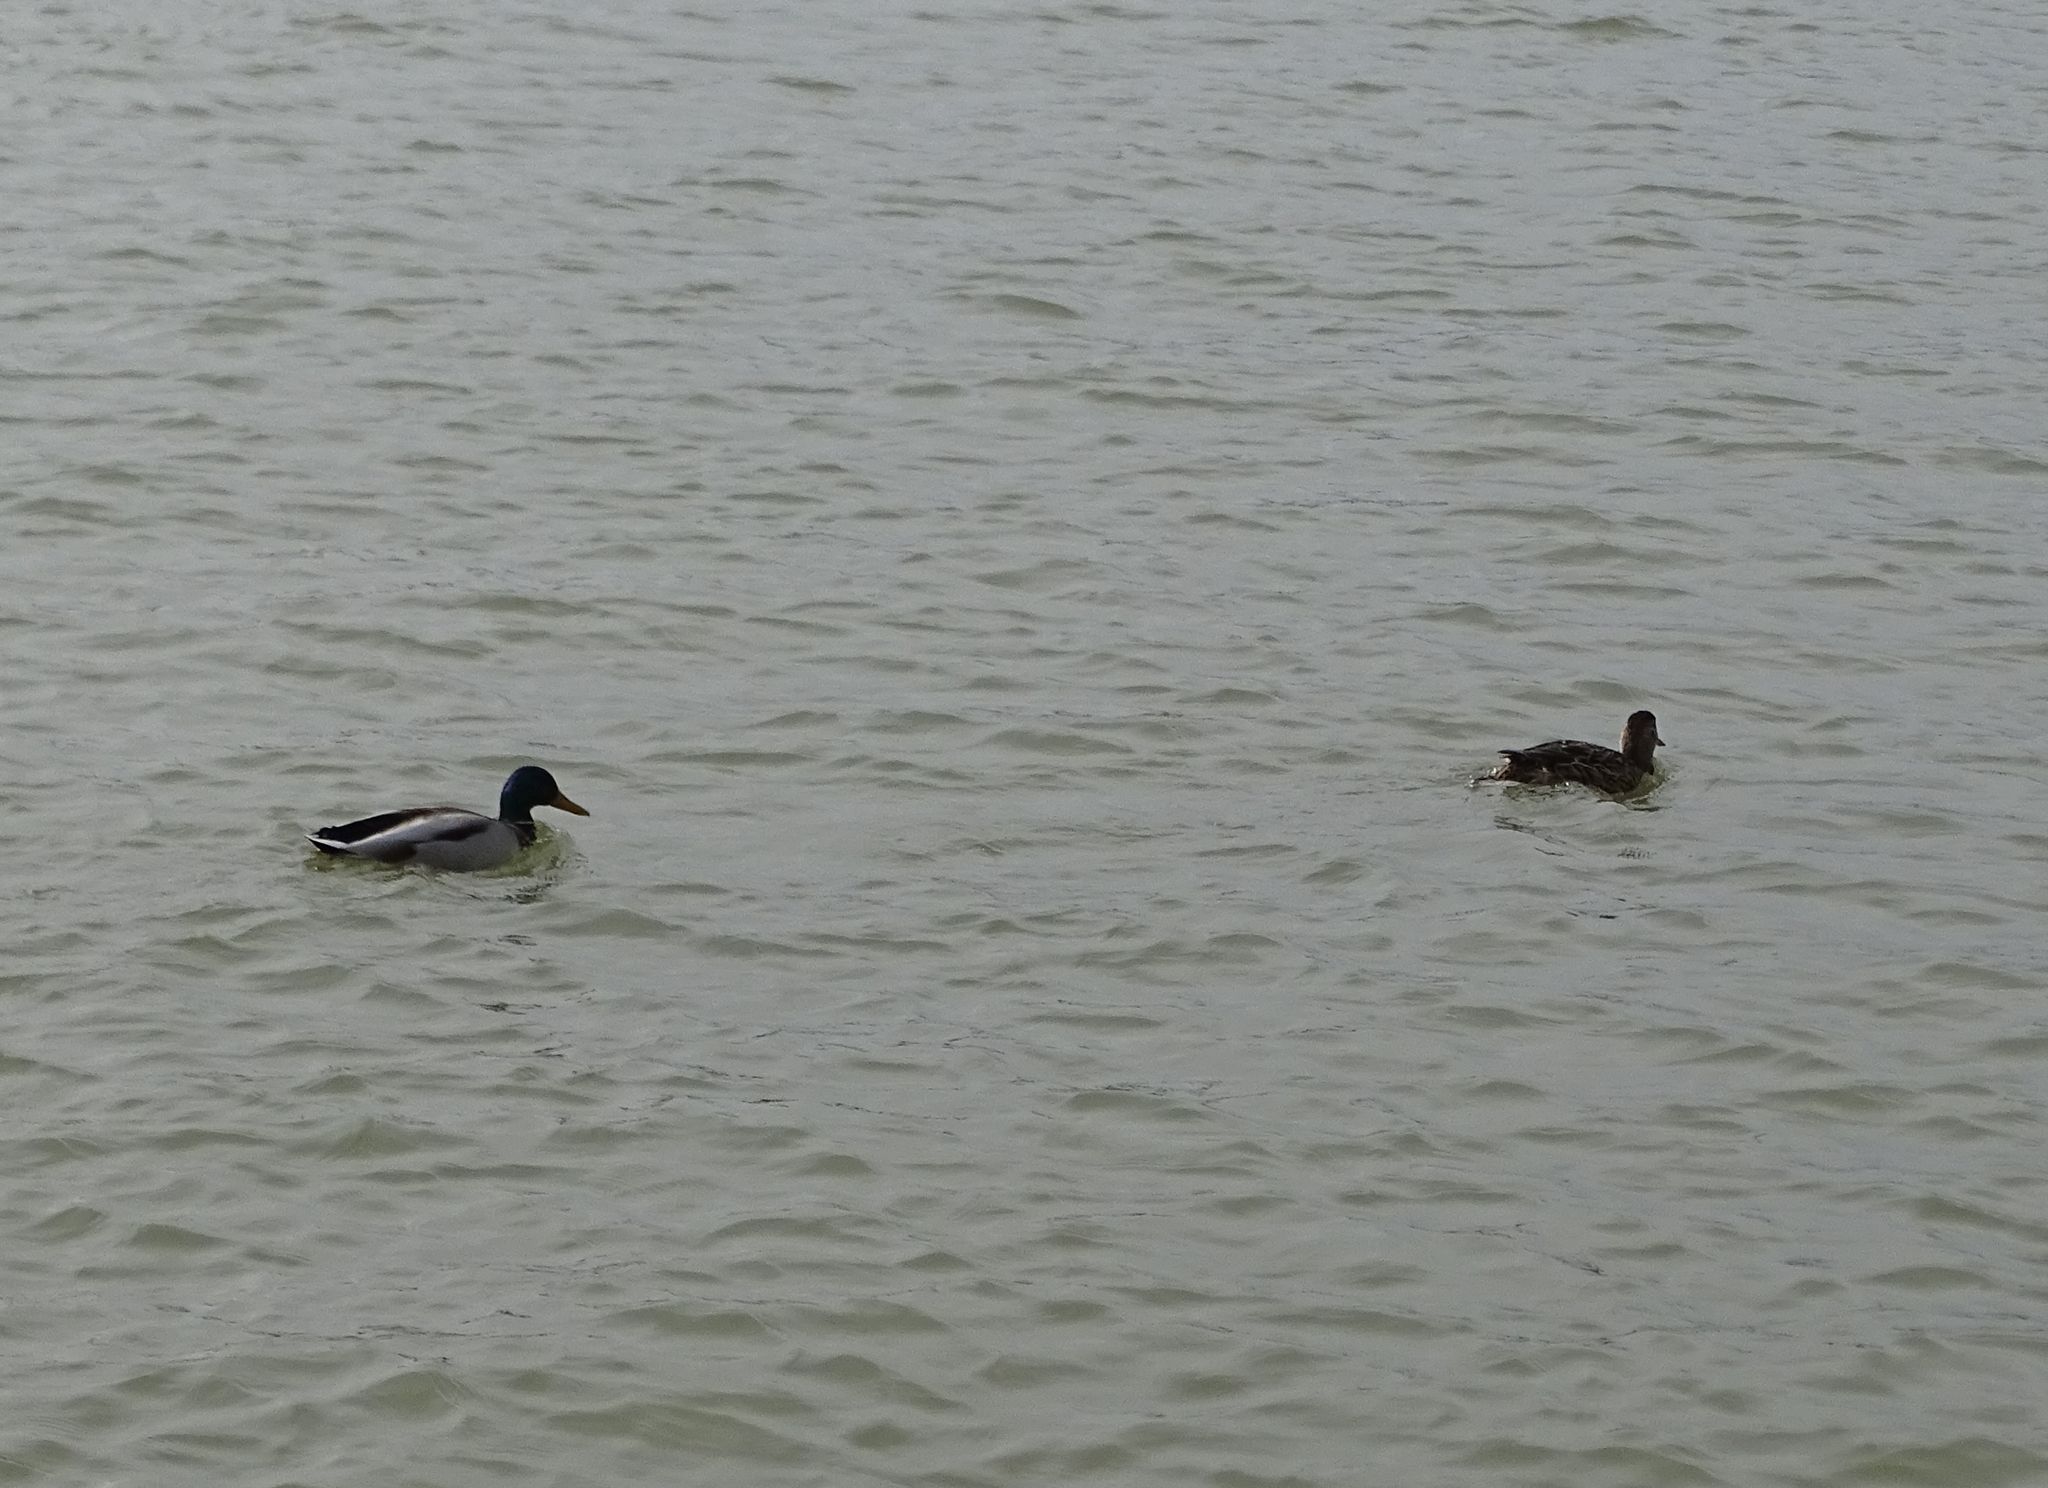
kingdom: Animalia
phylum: Chordata
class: Aves
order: Anseriformes
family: Anatidae
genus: Anas
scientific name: Anas platyrhynchos
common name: Mallard
